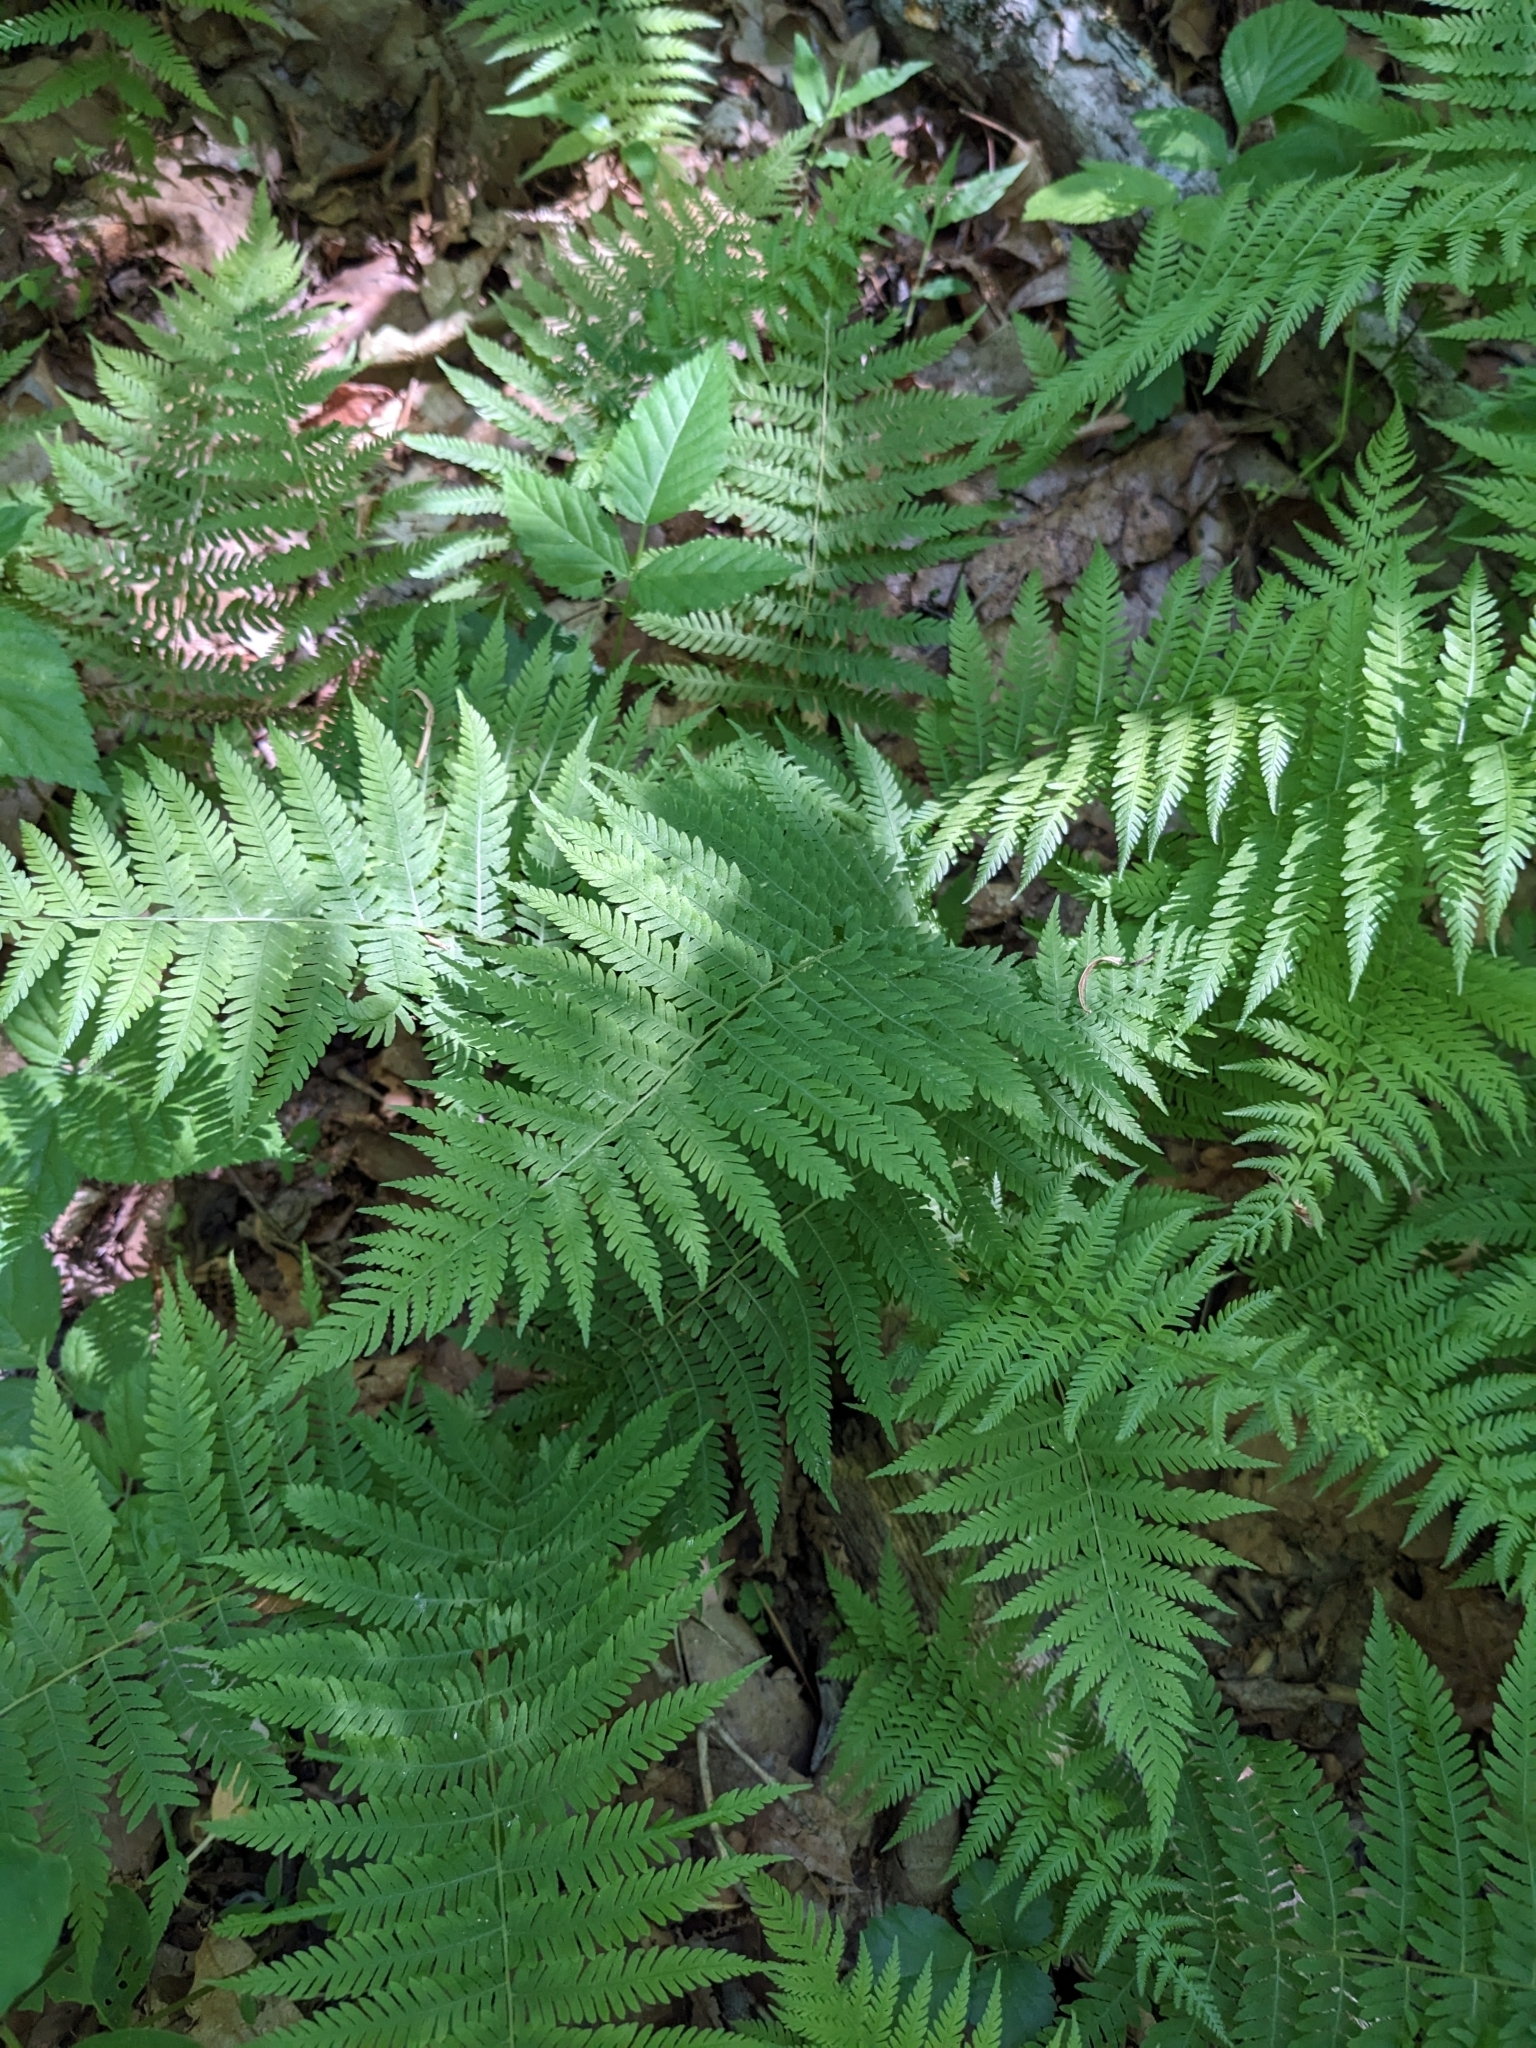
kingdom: Plantae
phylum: Tracheophyta
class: Polypodiopsida
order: Polypodiales
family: Thelypteridaceae
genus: Amauropelta
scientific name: Amauropelta noveboracensis
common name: New york fern
